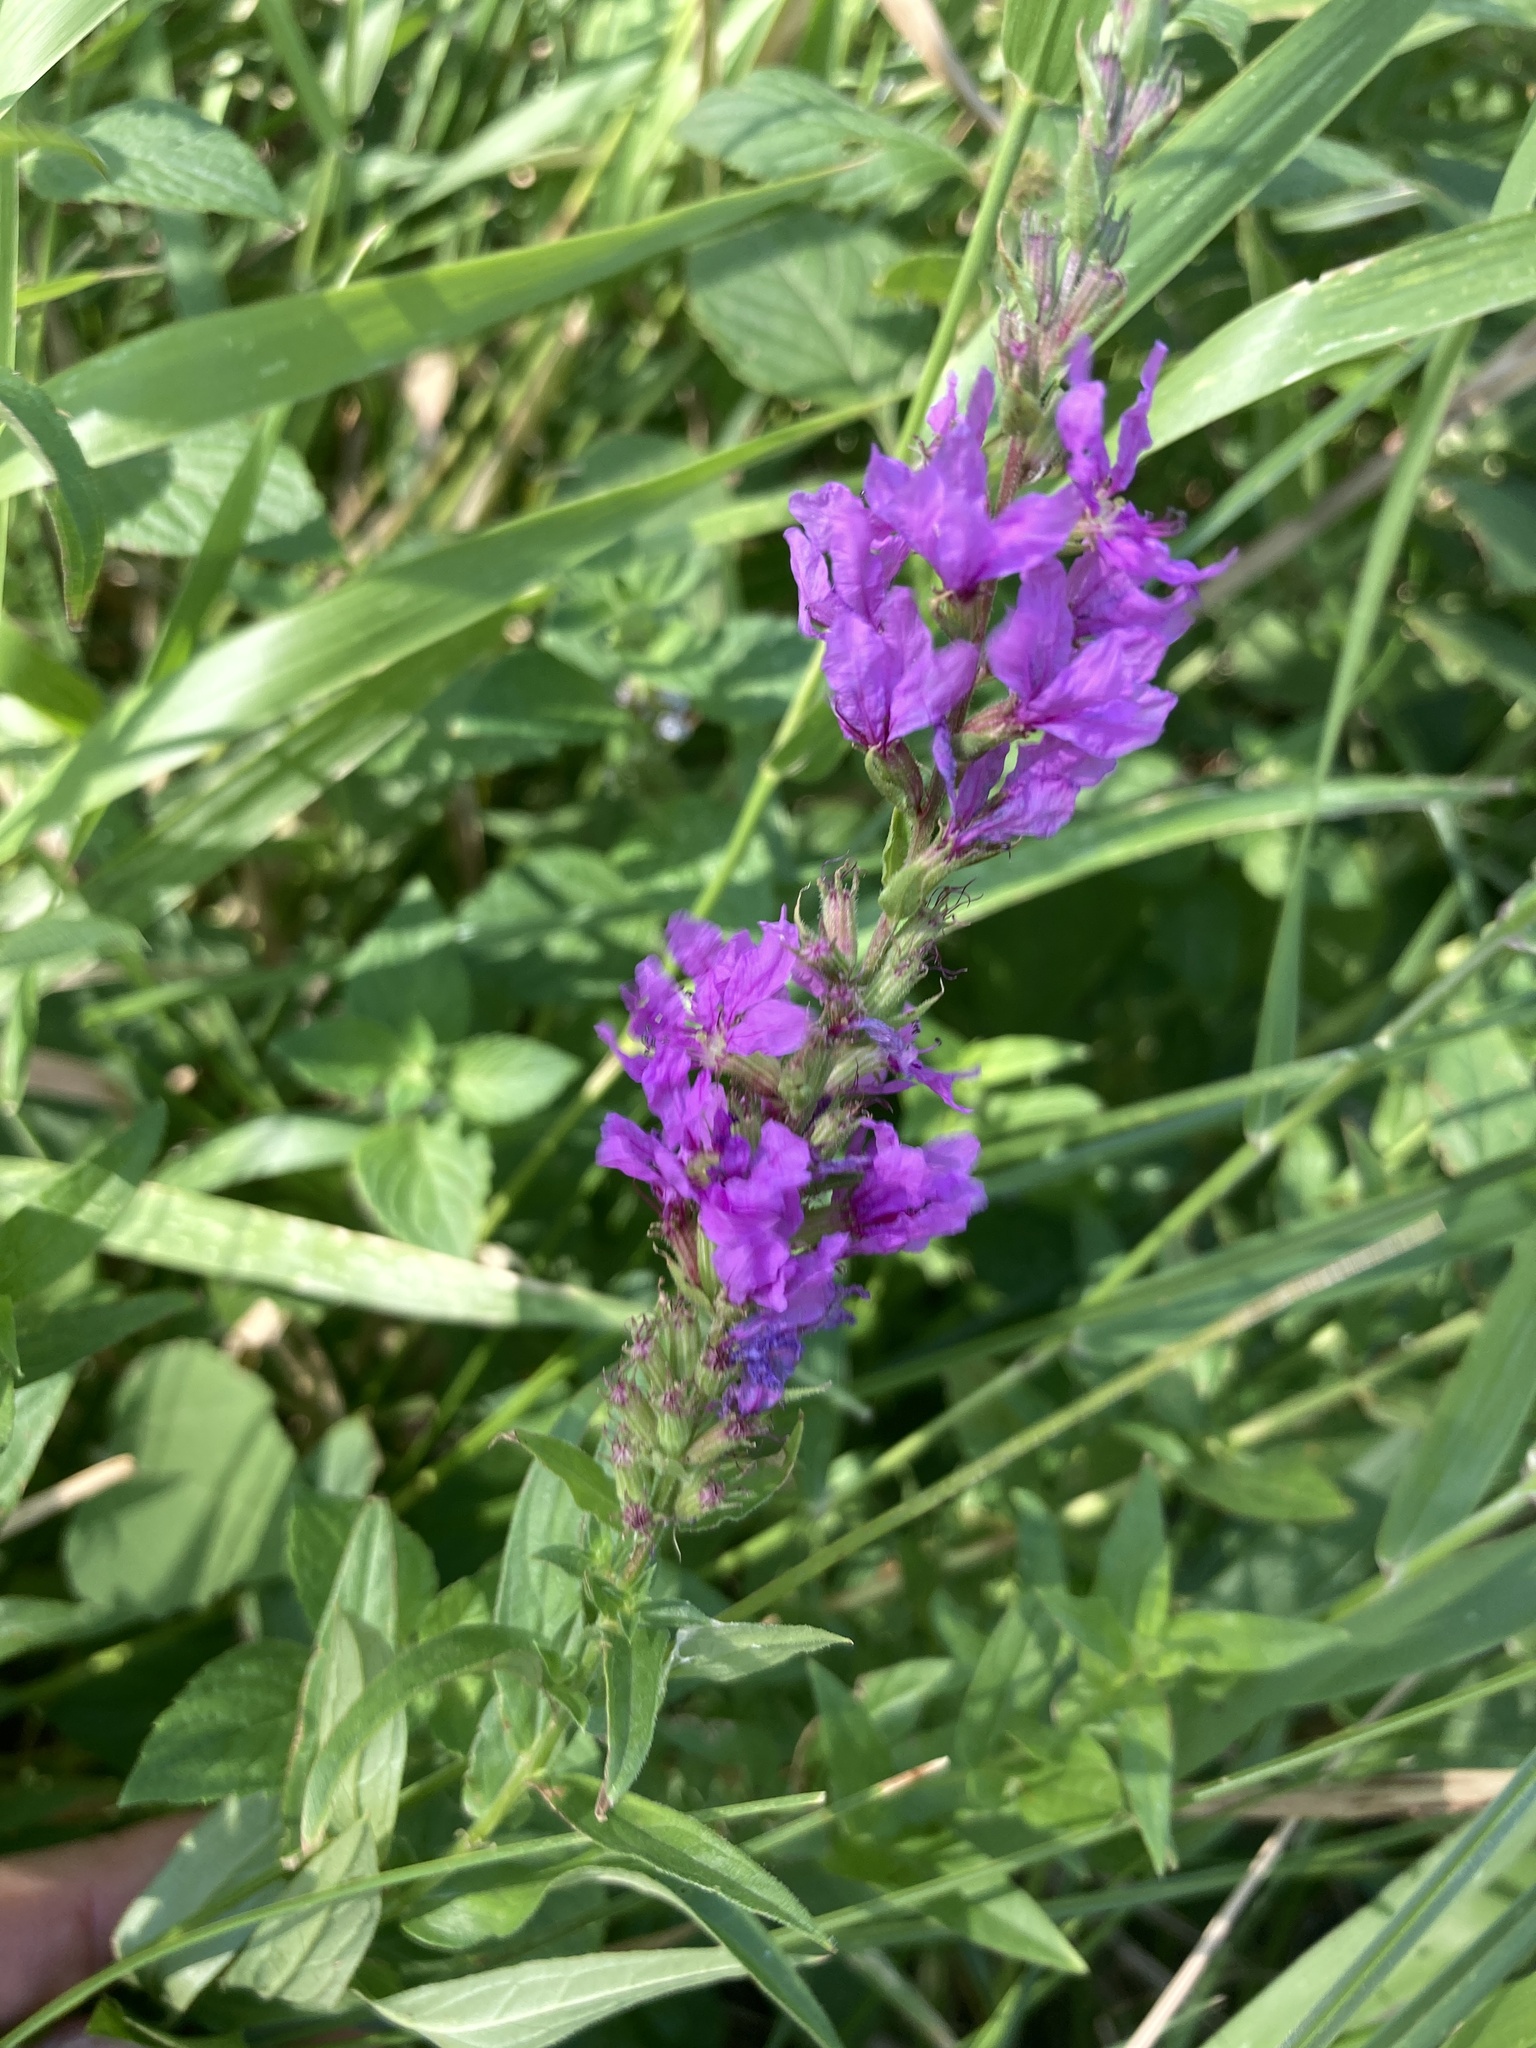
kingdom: Plantae
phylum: Tracheophyta
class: Magnoliopsida
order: Myrtales
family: Lythraceae
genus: Lythrum
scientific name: Lythrum salicaria
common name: Purple loosestrife
